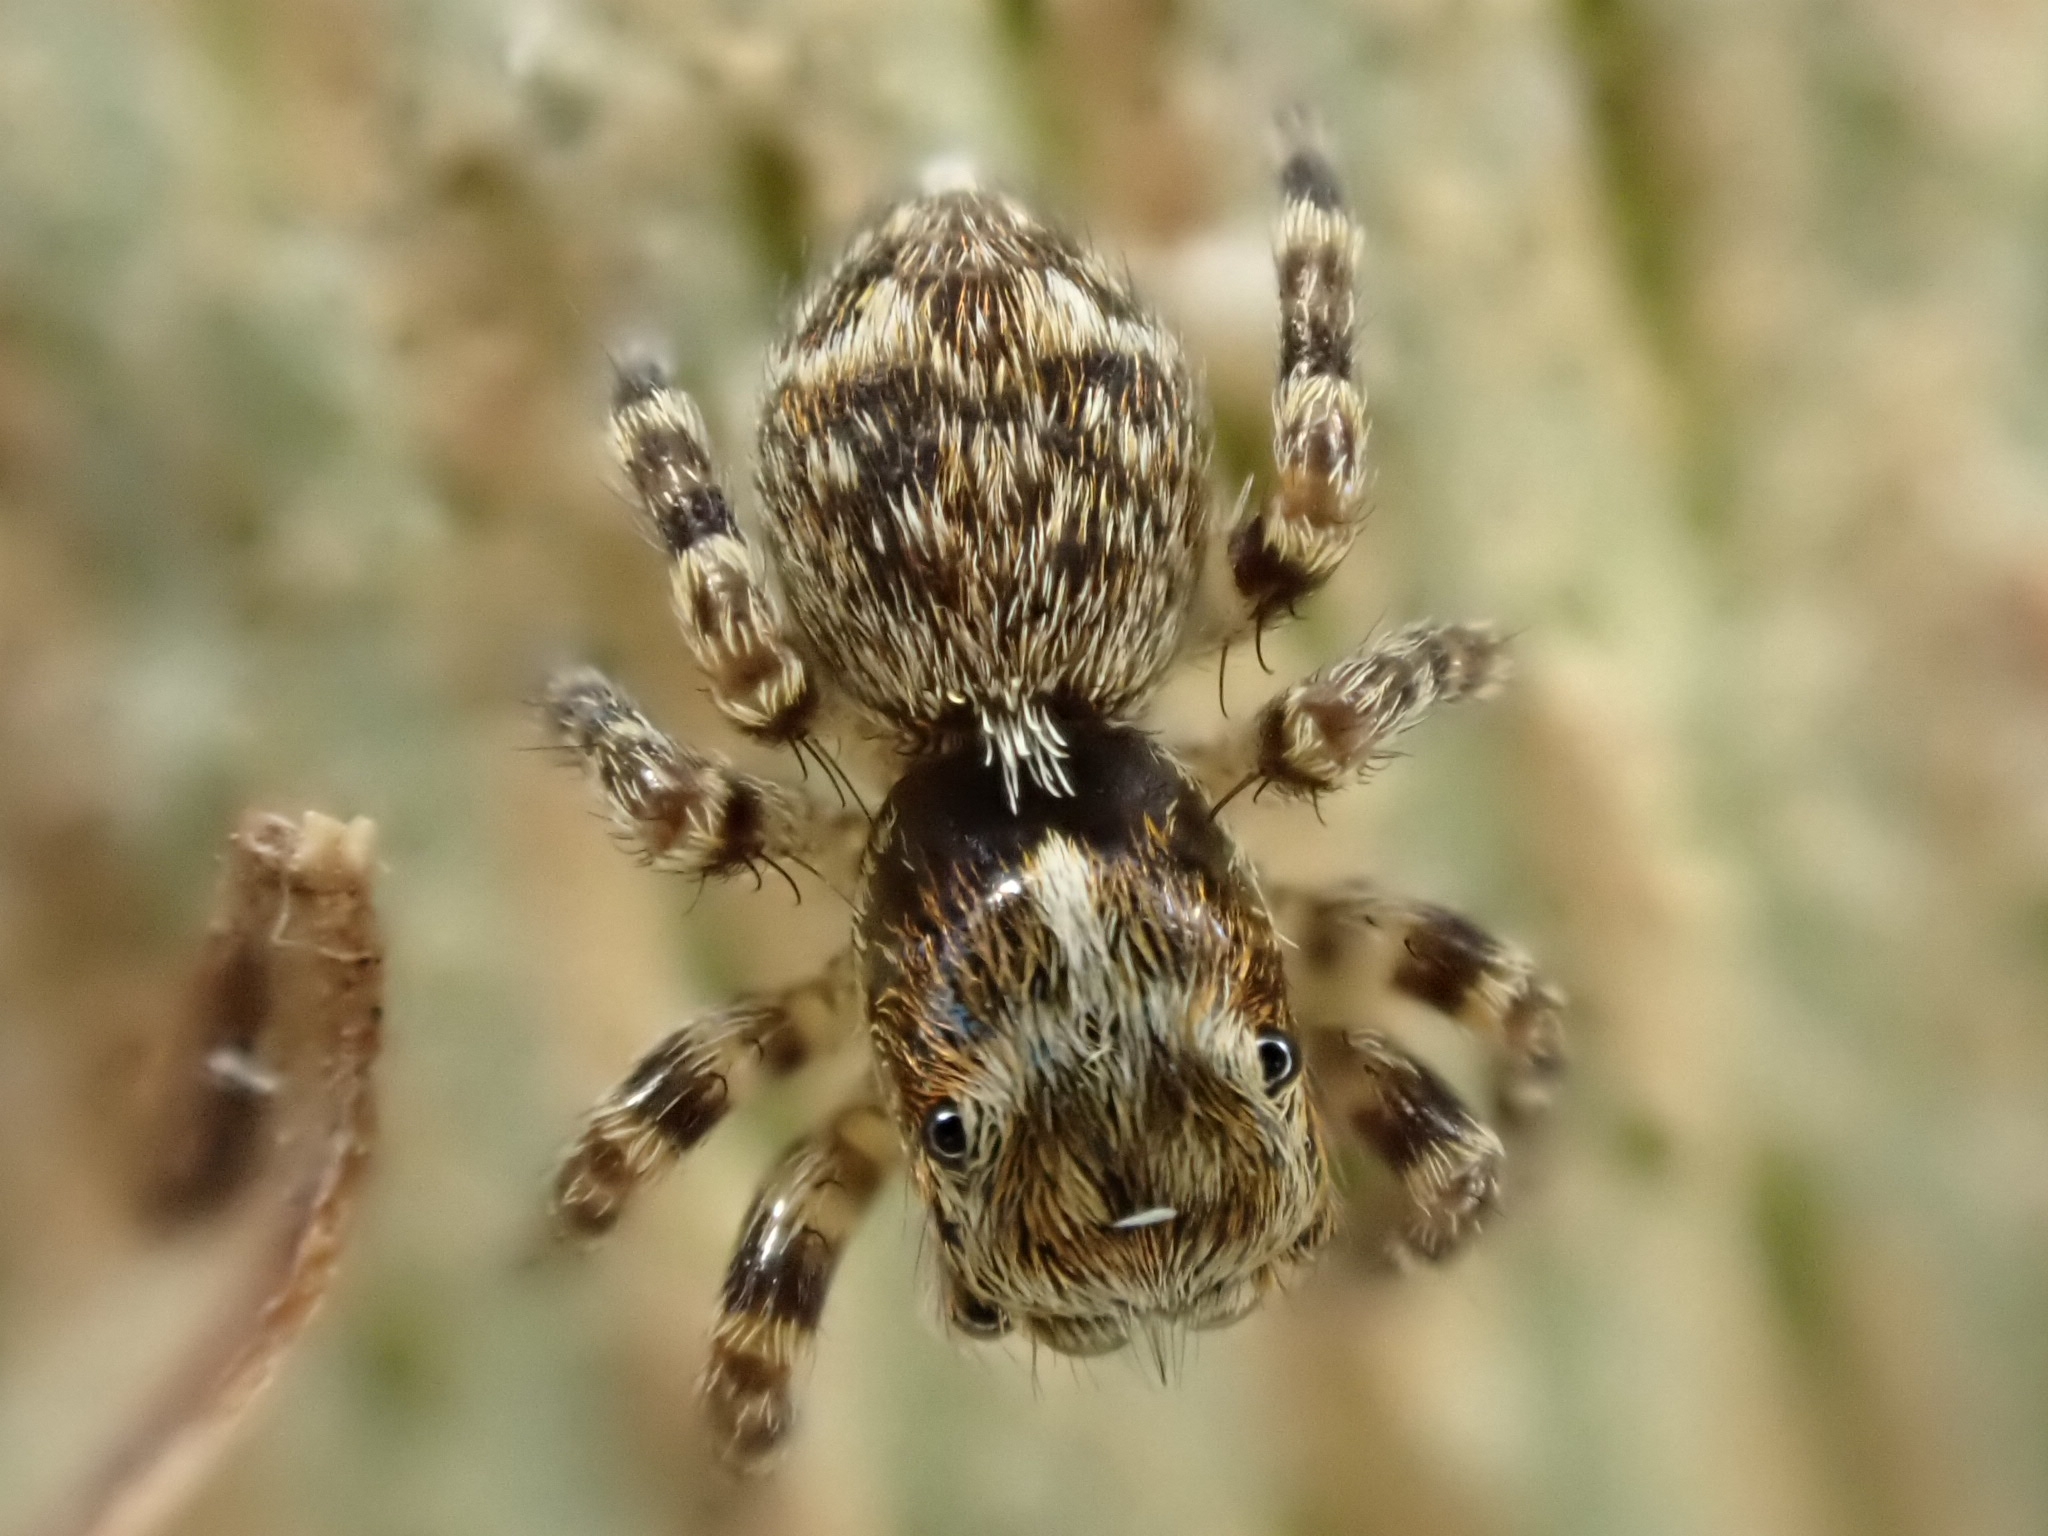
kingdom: Animalia
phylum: Arthropoda
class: Arachnida
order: Araneae
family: Salticidae
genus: Pseudeuophrys
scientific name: Pseudeuophrys erratica
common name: Jumping spider
